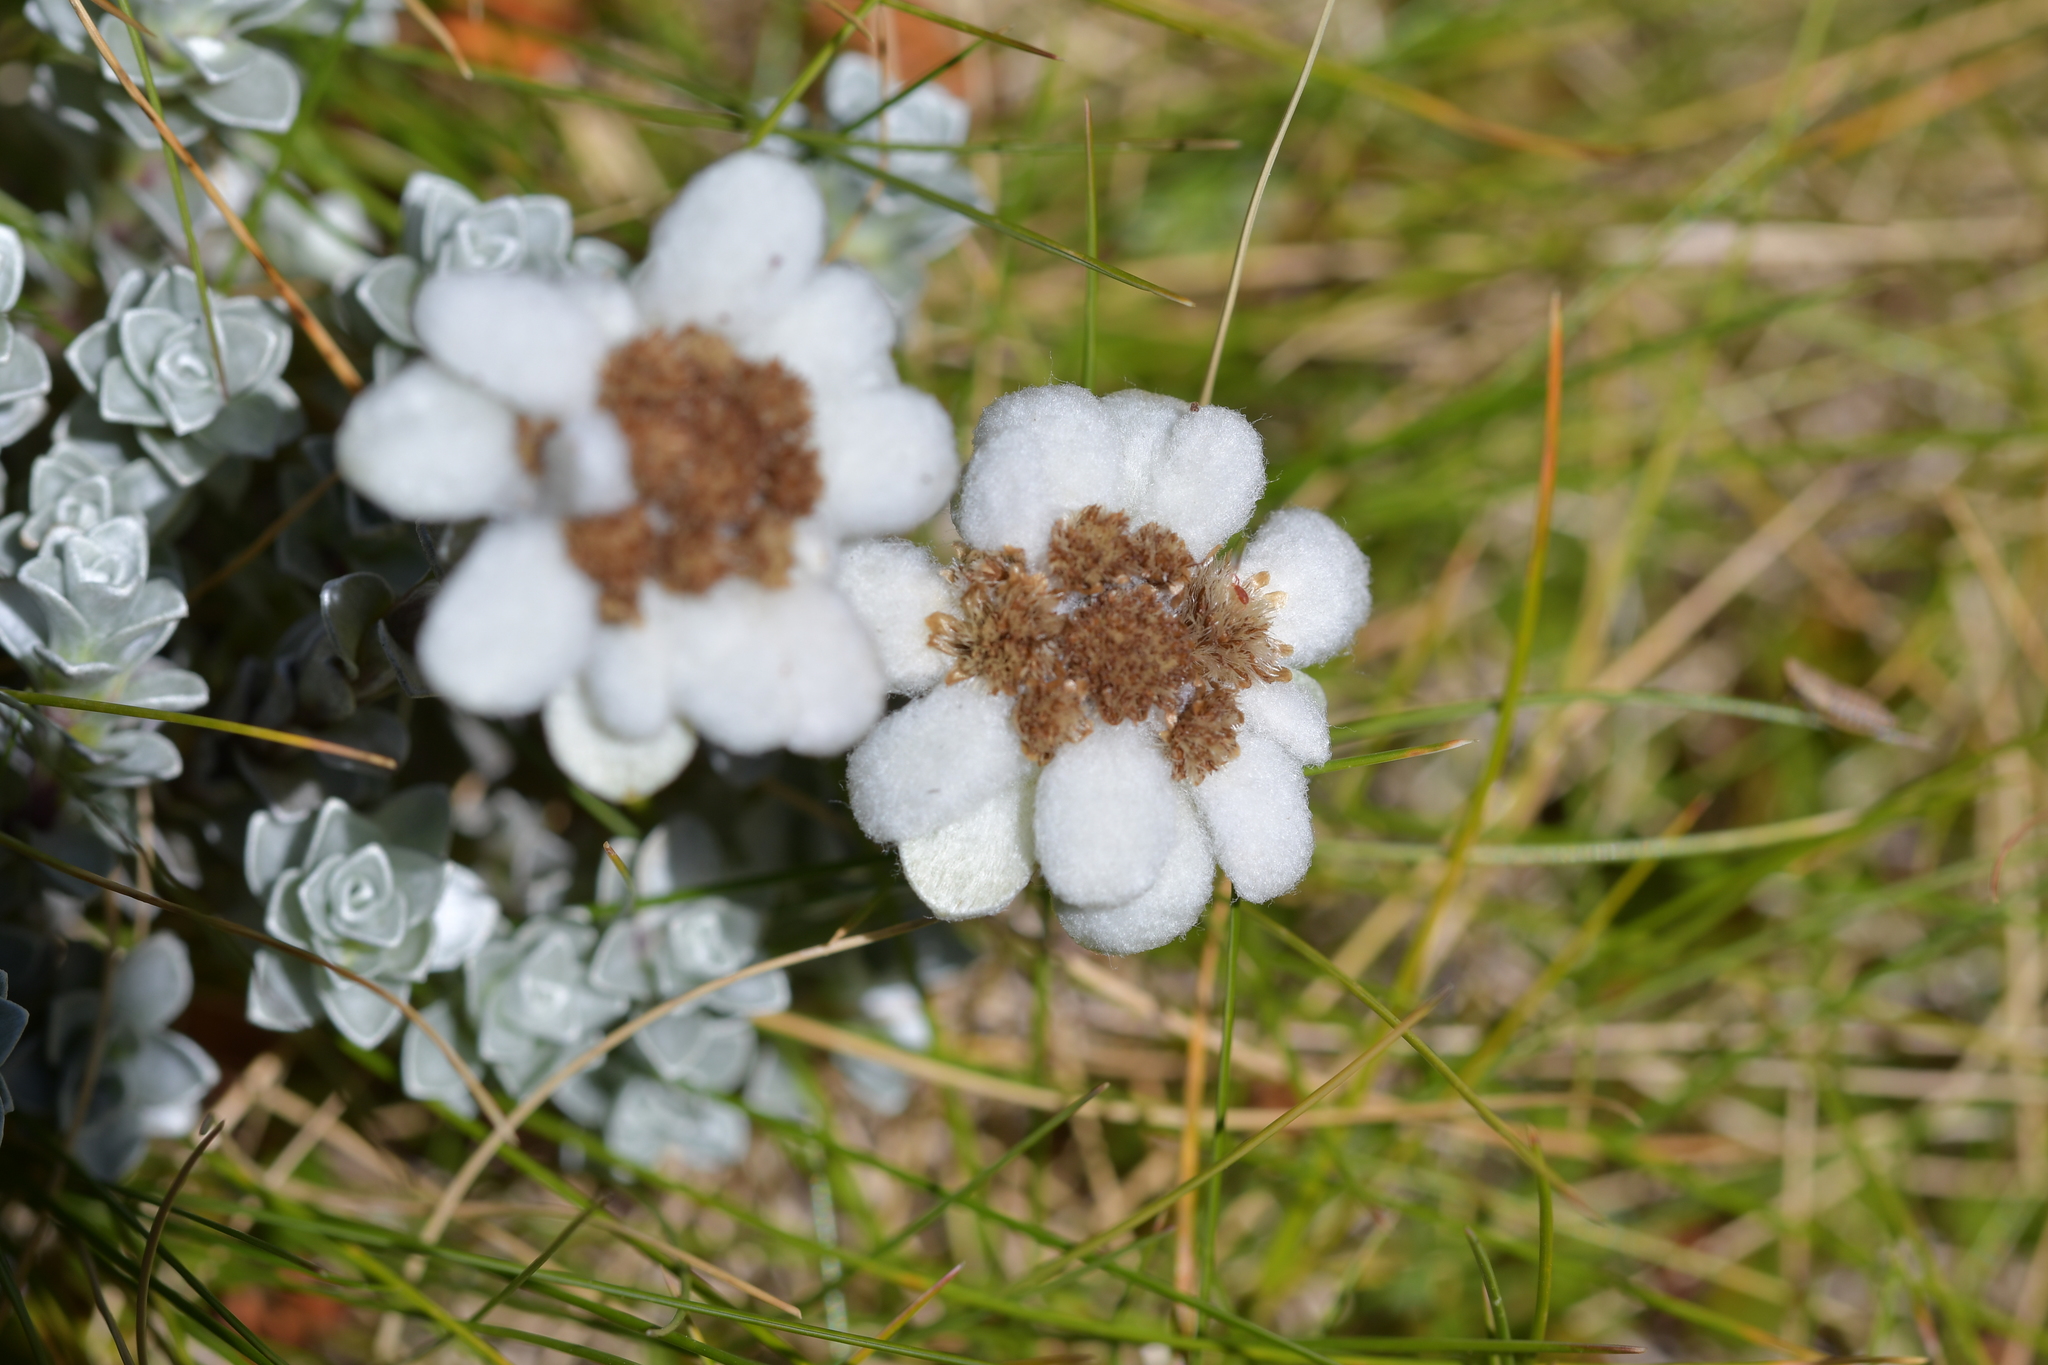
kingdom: Plantae
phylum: Tracheophyta
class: Magnoliopsida
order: Asterales
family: Asteraceae
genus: Leucogenes
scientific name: Leucogenes grandiceps
